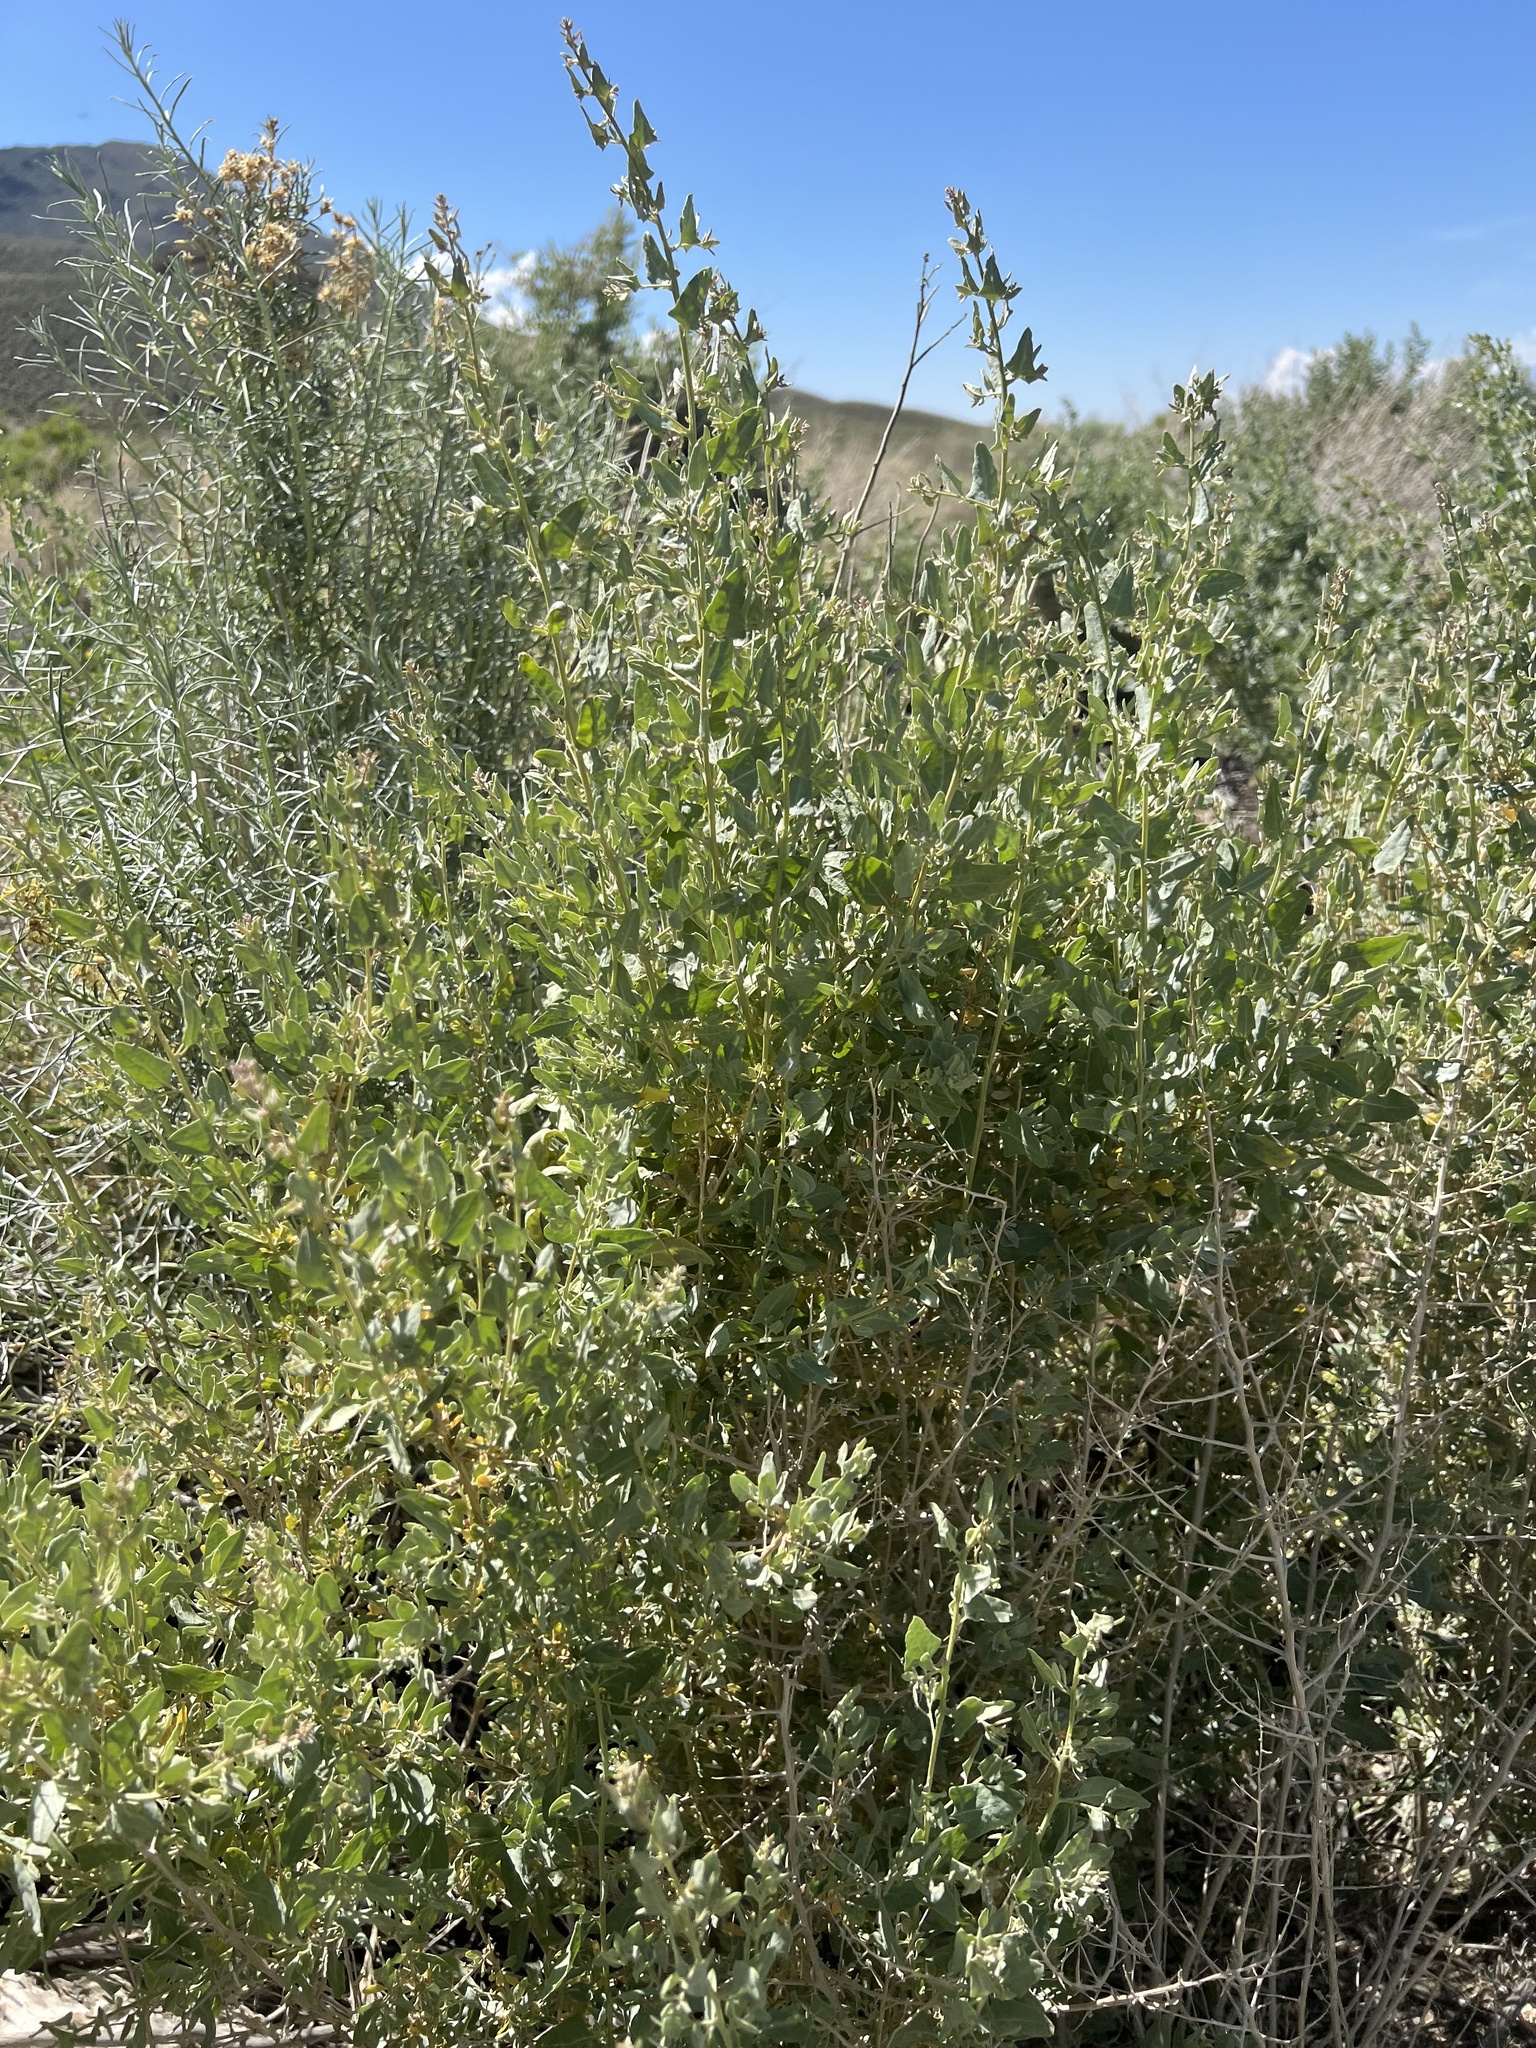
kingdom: Plantae
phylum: Tracheophyta
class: Magnoliopsida
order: Caryophyllales
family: Amaranthaceae
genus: Atriplex
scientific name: Atriplex torreyi
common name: Torrey's saltbush
